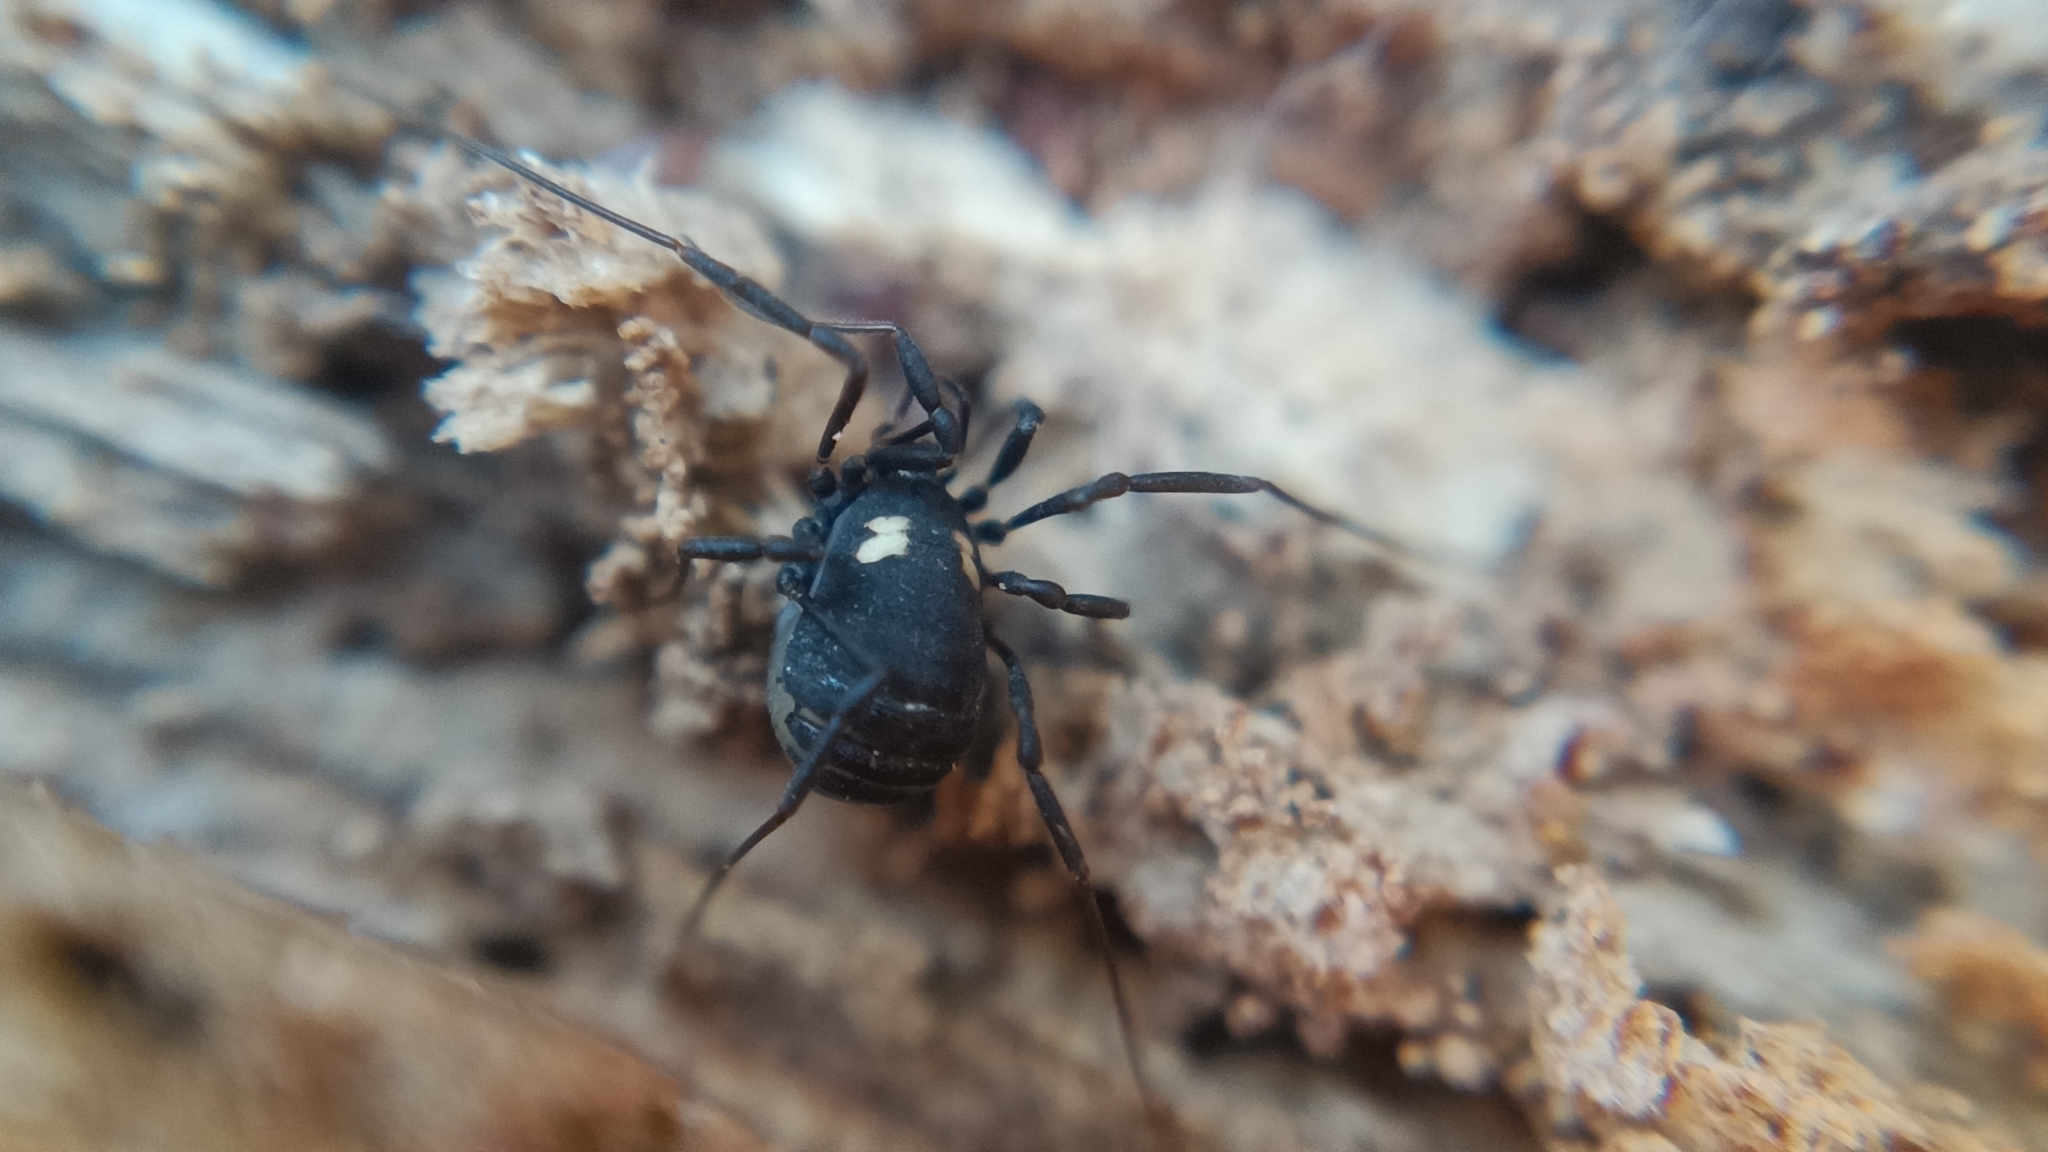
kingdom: Animalia
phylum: Arthropoda
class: Arachnida
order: Opiliones
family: Nemastomatidae
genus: Nemastoma
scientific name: Nemastoma bimaculatum
